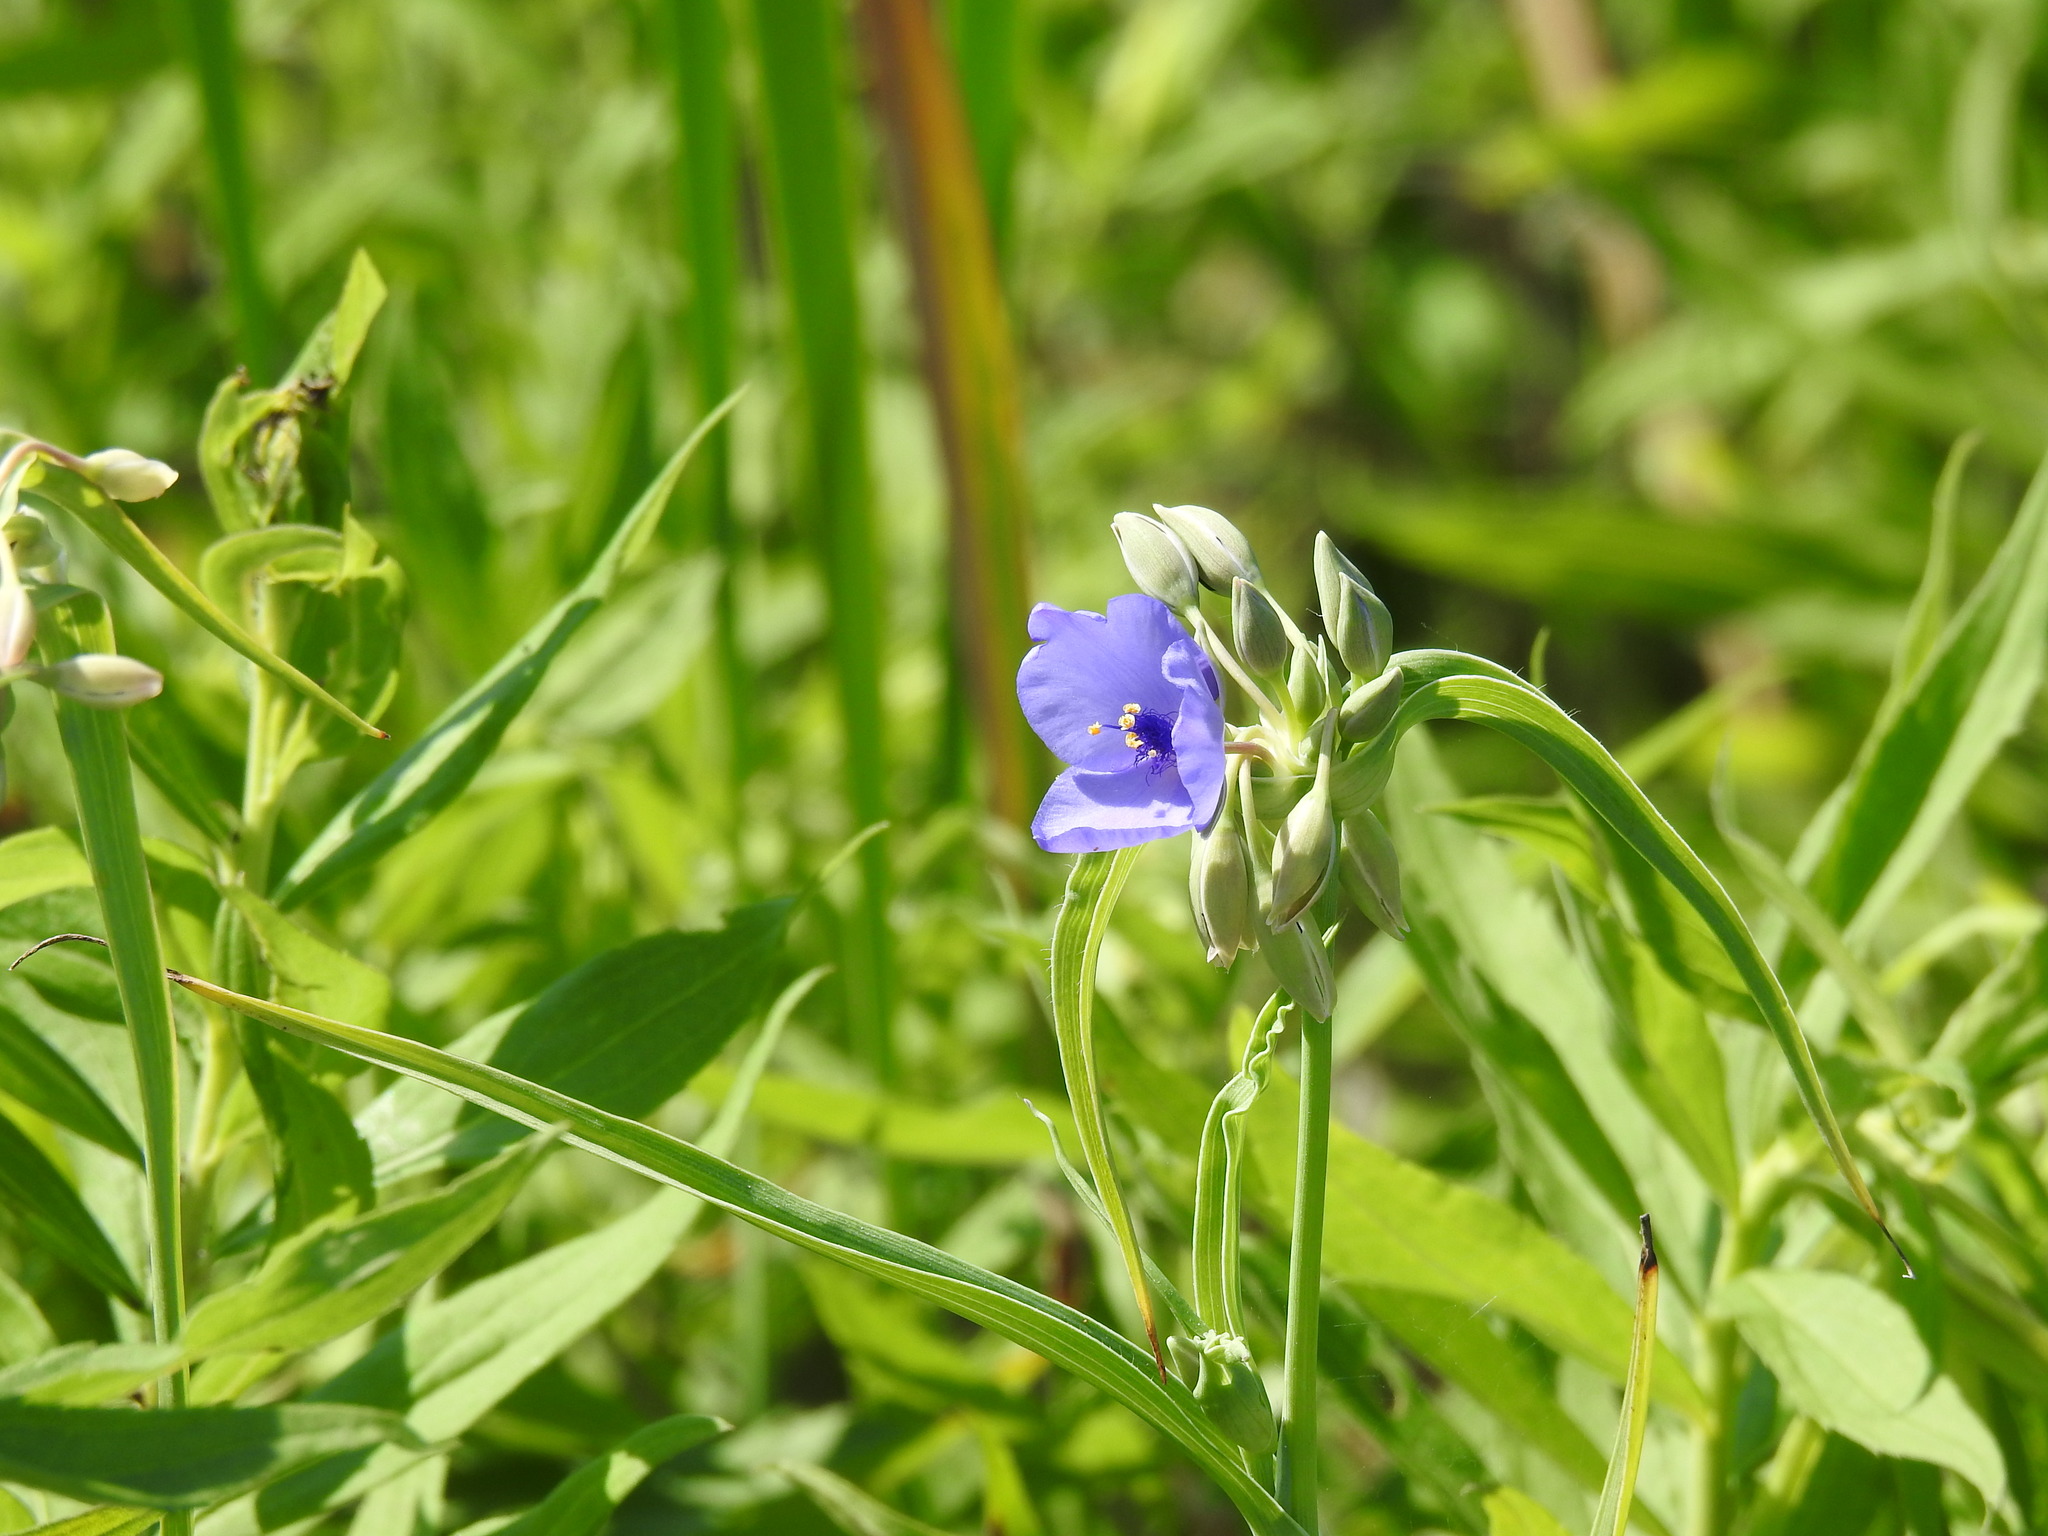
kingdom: Plantae
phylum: Tracheophyta
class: Liliopsida
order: Commelinales
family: Commelinaceae
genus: Tradescantia
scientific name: Tradescantia ohiensis
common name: Ohio spiderwort
